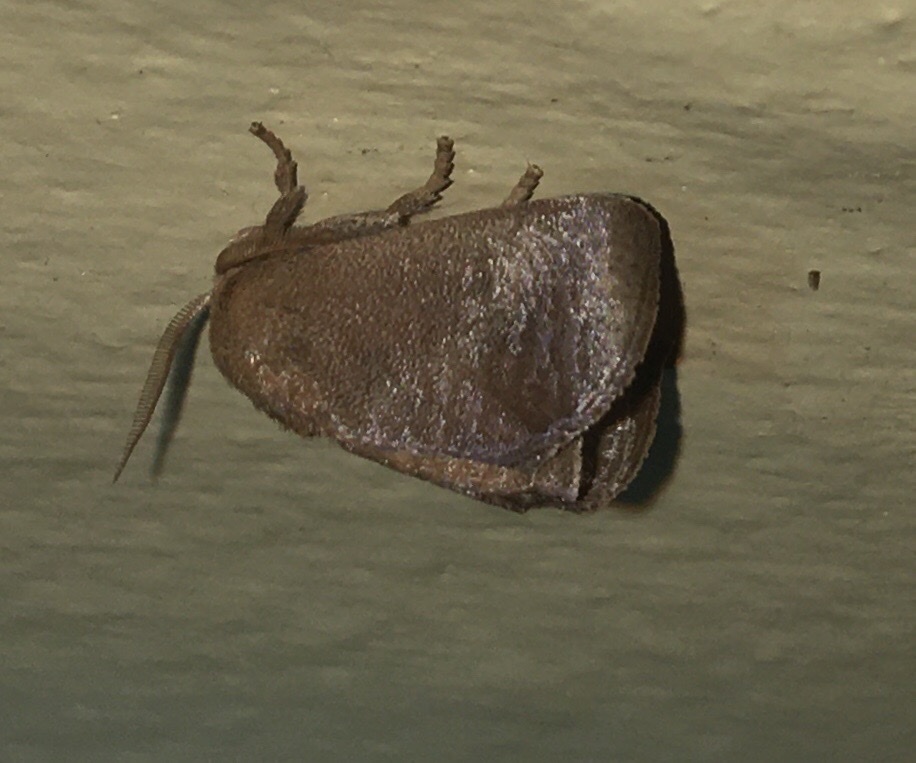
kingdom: Animalia
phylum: Arthropoda
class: Insecta
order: Lepidoptera
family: Limacodidae
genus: Isa
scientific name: Isa textula
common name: Crowned slug moth
